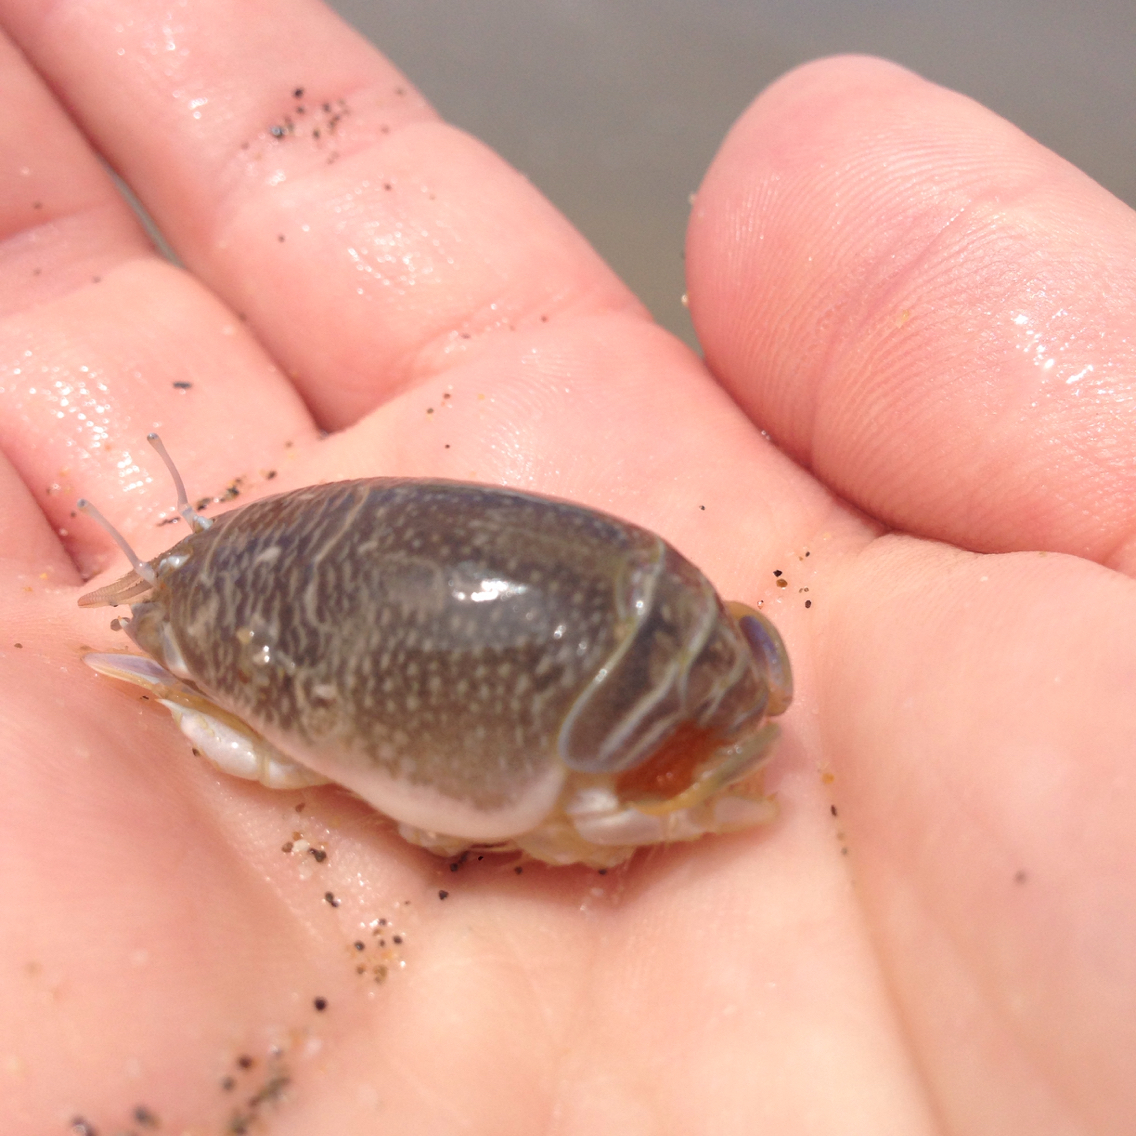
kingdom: Animalia
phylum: Arthropoda
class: Malacostraca
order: Decapoda
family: Hippidae
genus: Emerita
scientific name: Emerita analoga
